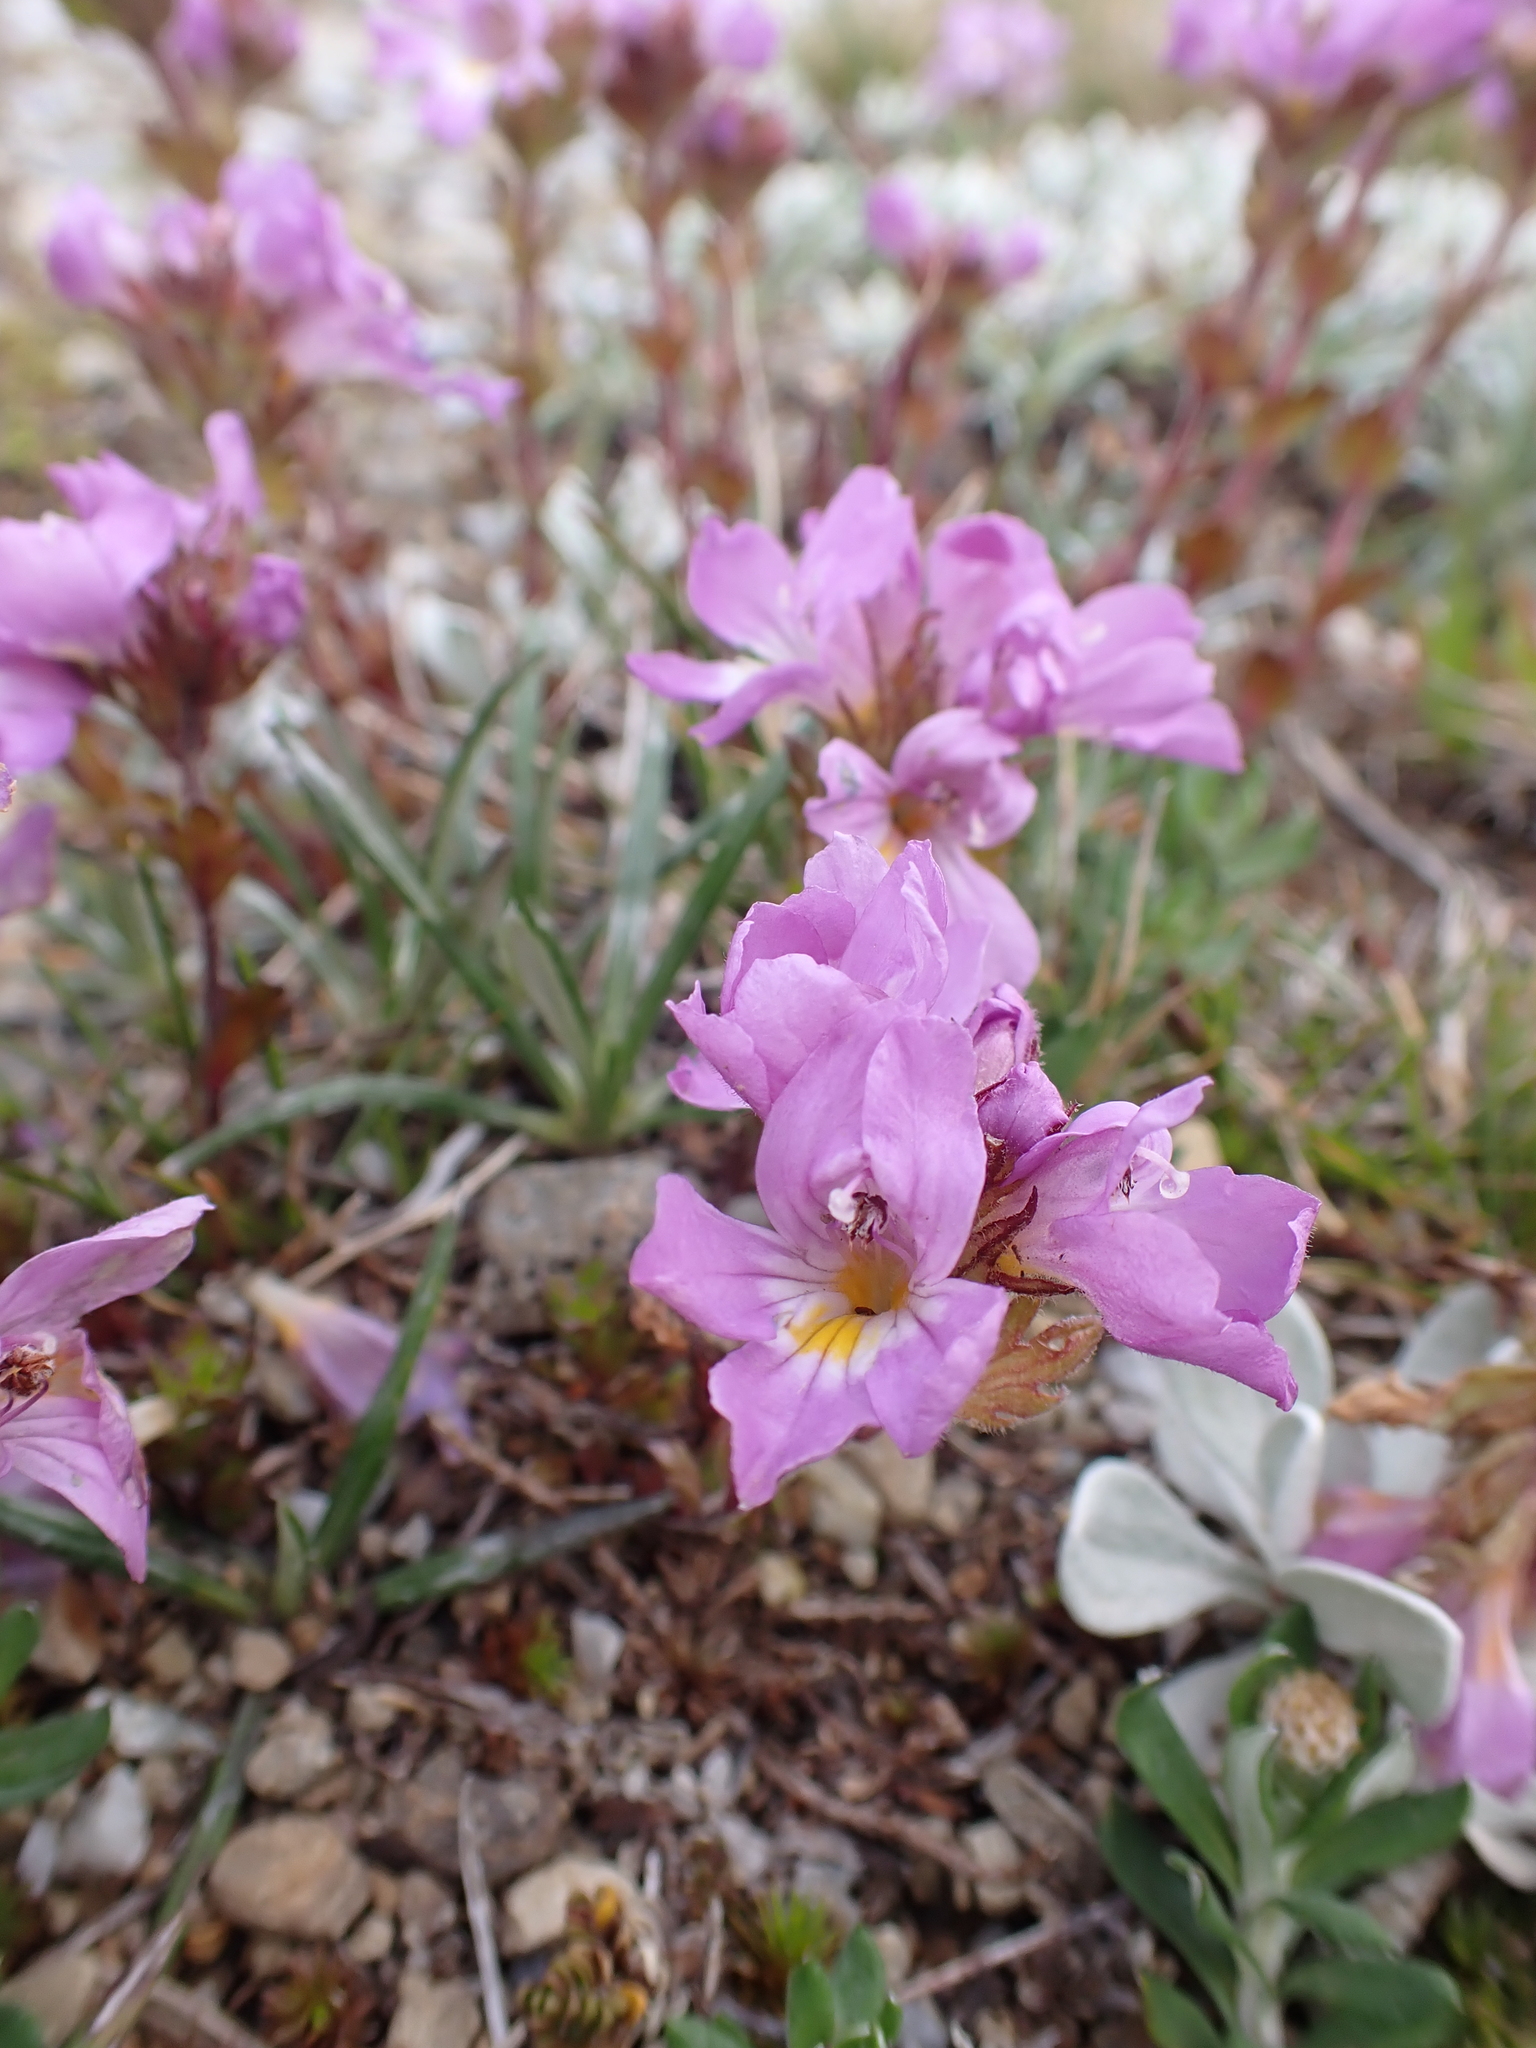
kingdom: Plantae
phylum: Tracheophyta
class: Magnoliopsida
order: Lamiales
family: Orobanchaceae
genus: Euphrasia
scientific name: Euphrasia collina
